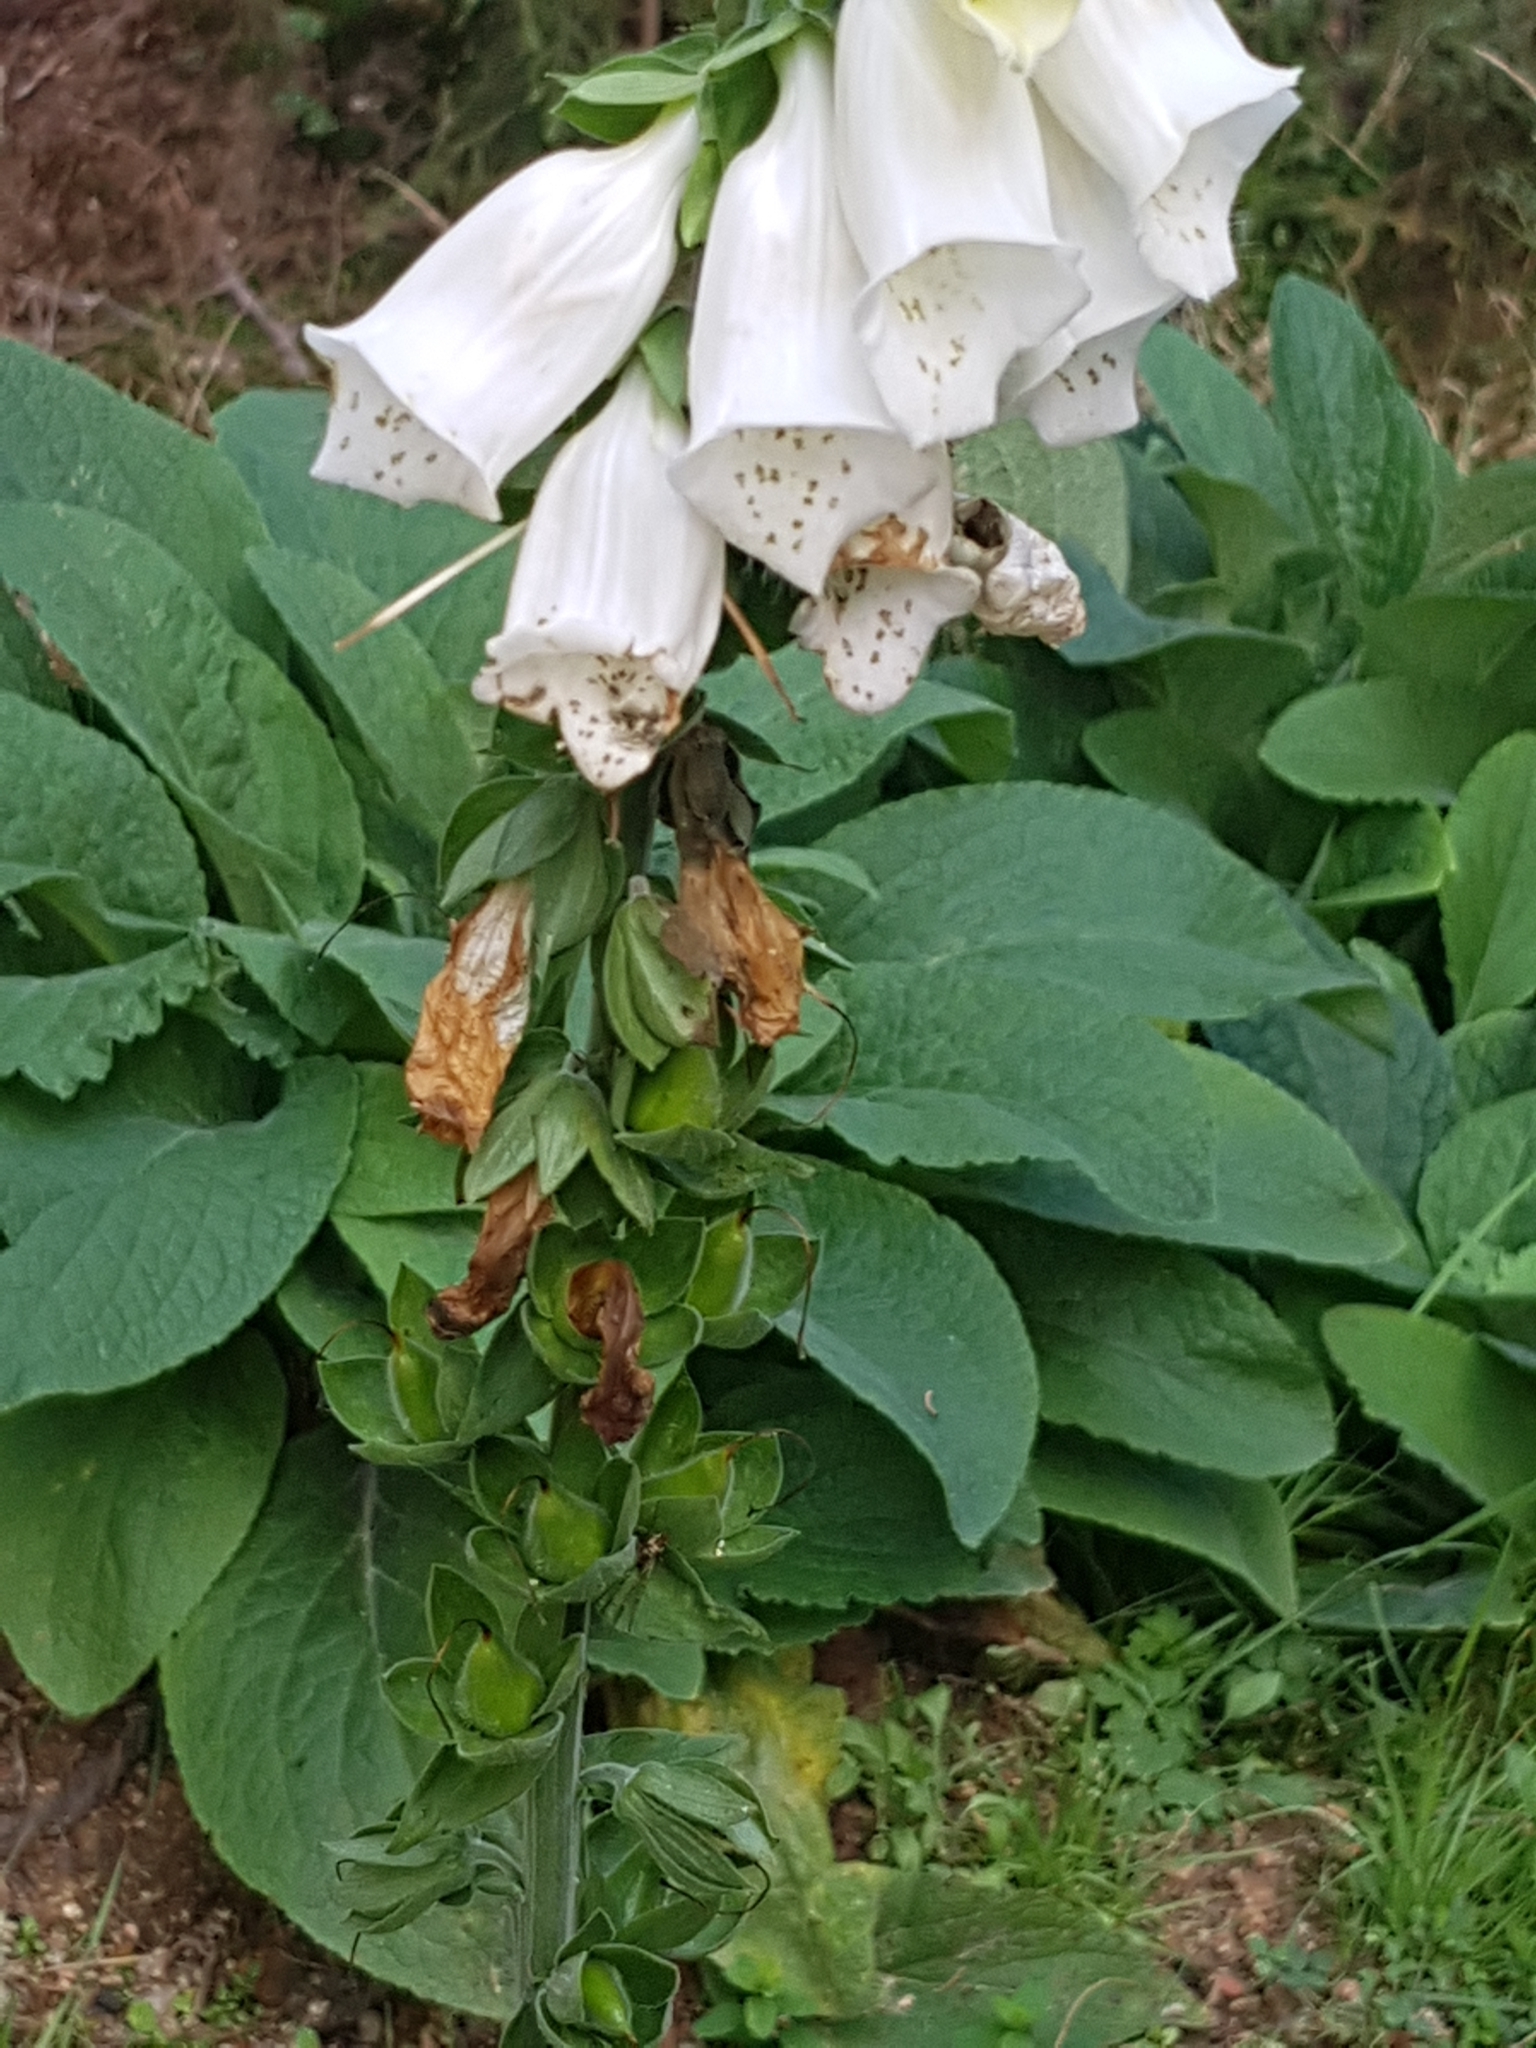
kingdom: Plantae
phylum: Tracheophyta
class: Magnoliopsida
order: Lamiales
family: Plantaginaceae
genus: Digitalis
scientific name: Digitalis purpurea
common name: Foxglove
